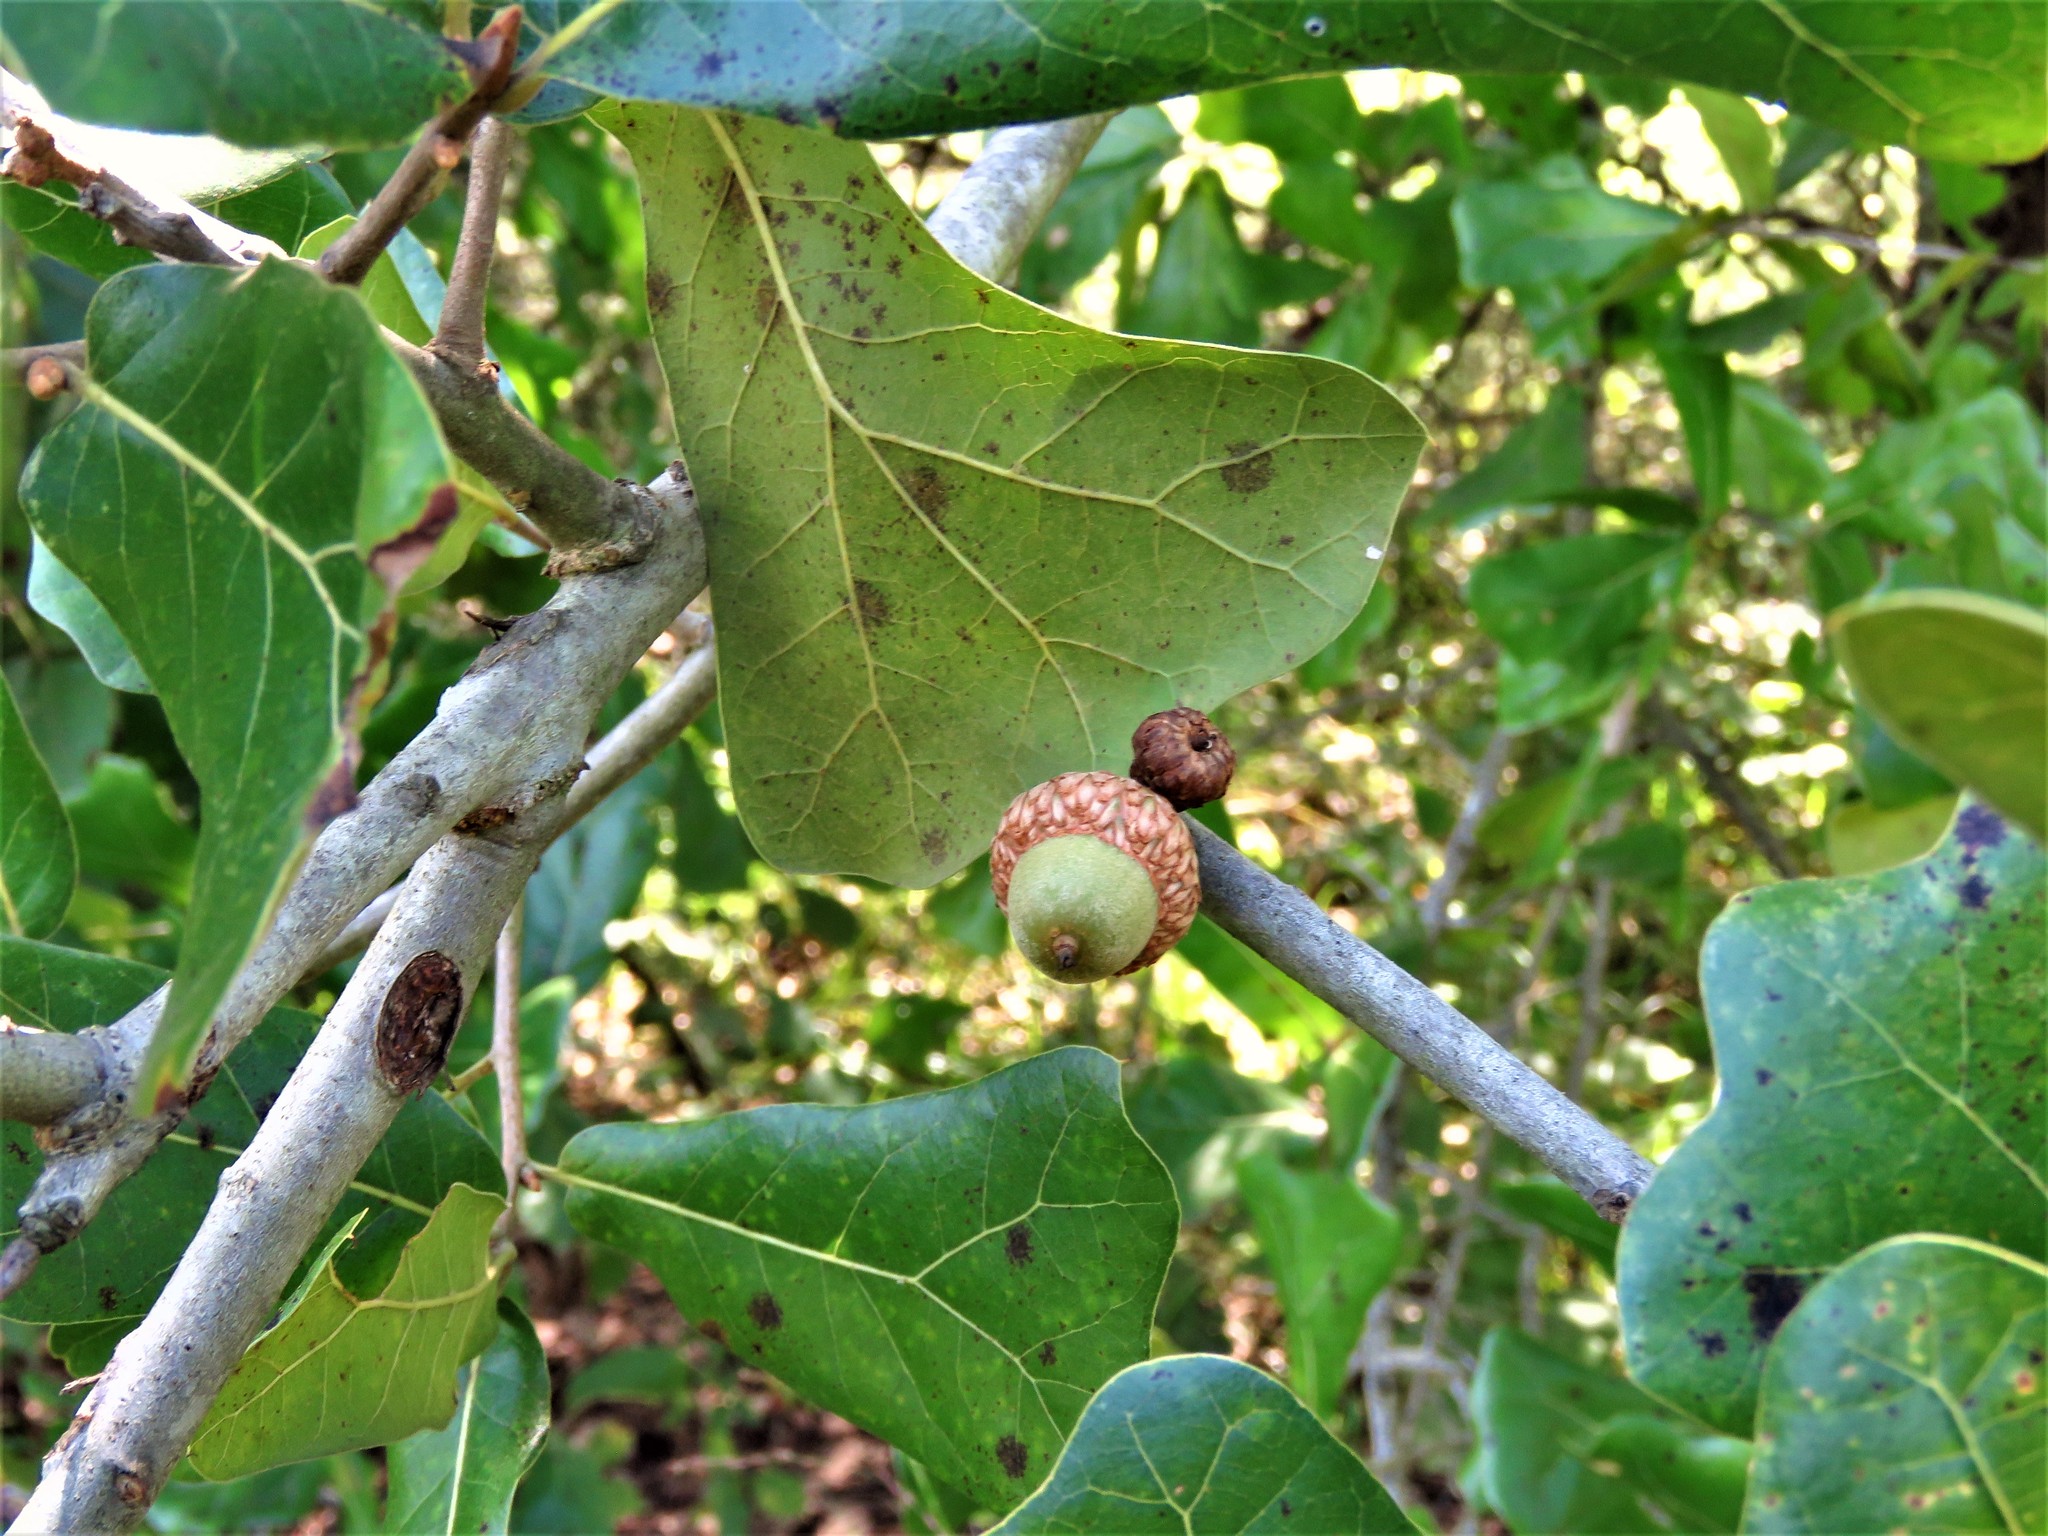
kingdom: Plantae
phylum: Tracheophyta
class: Magnoliopsida
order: Fagales
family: Fagaceae
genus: Quercus
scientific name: Quercus marilandica
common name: Blackjack oak
